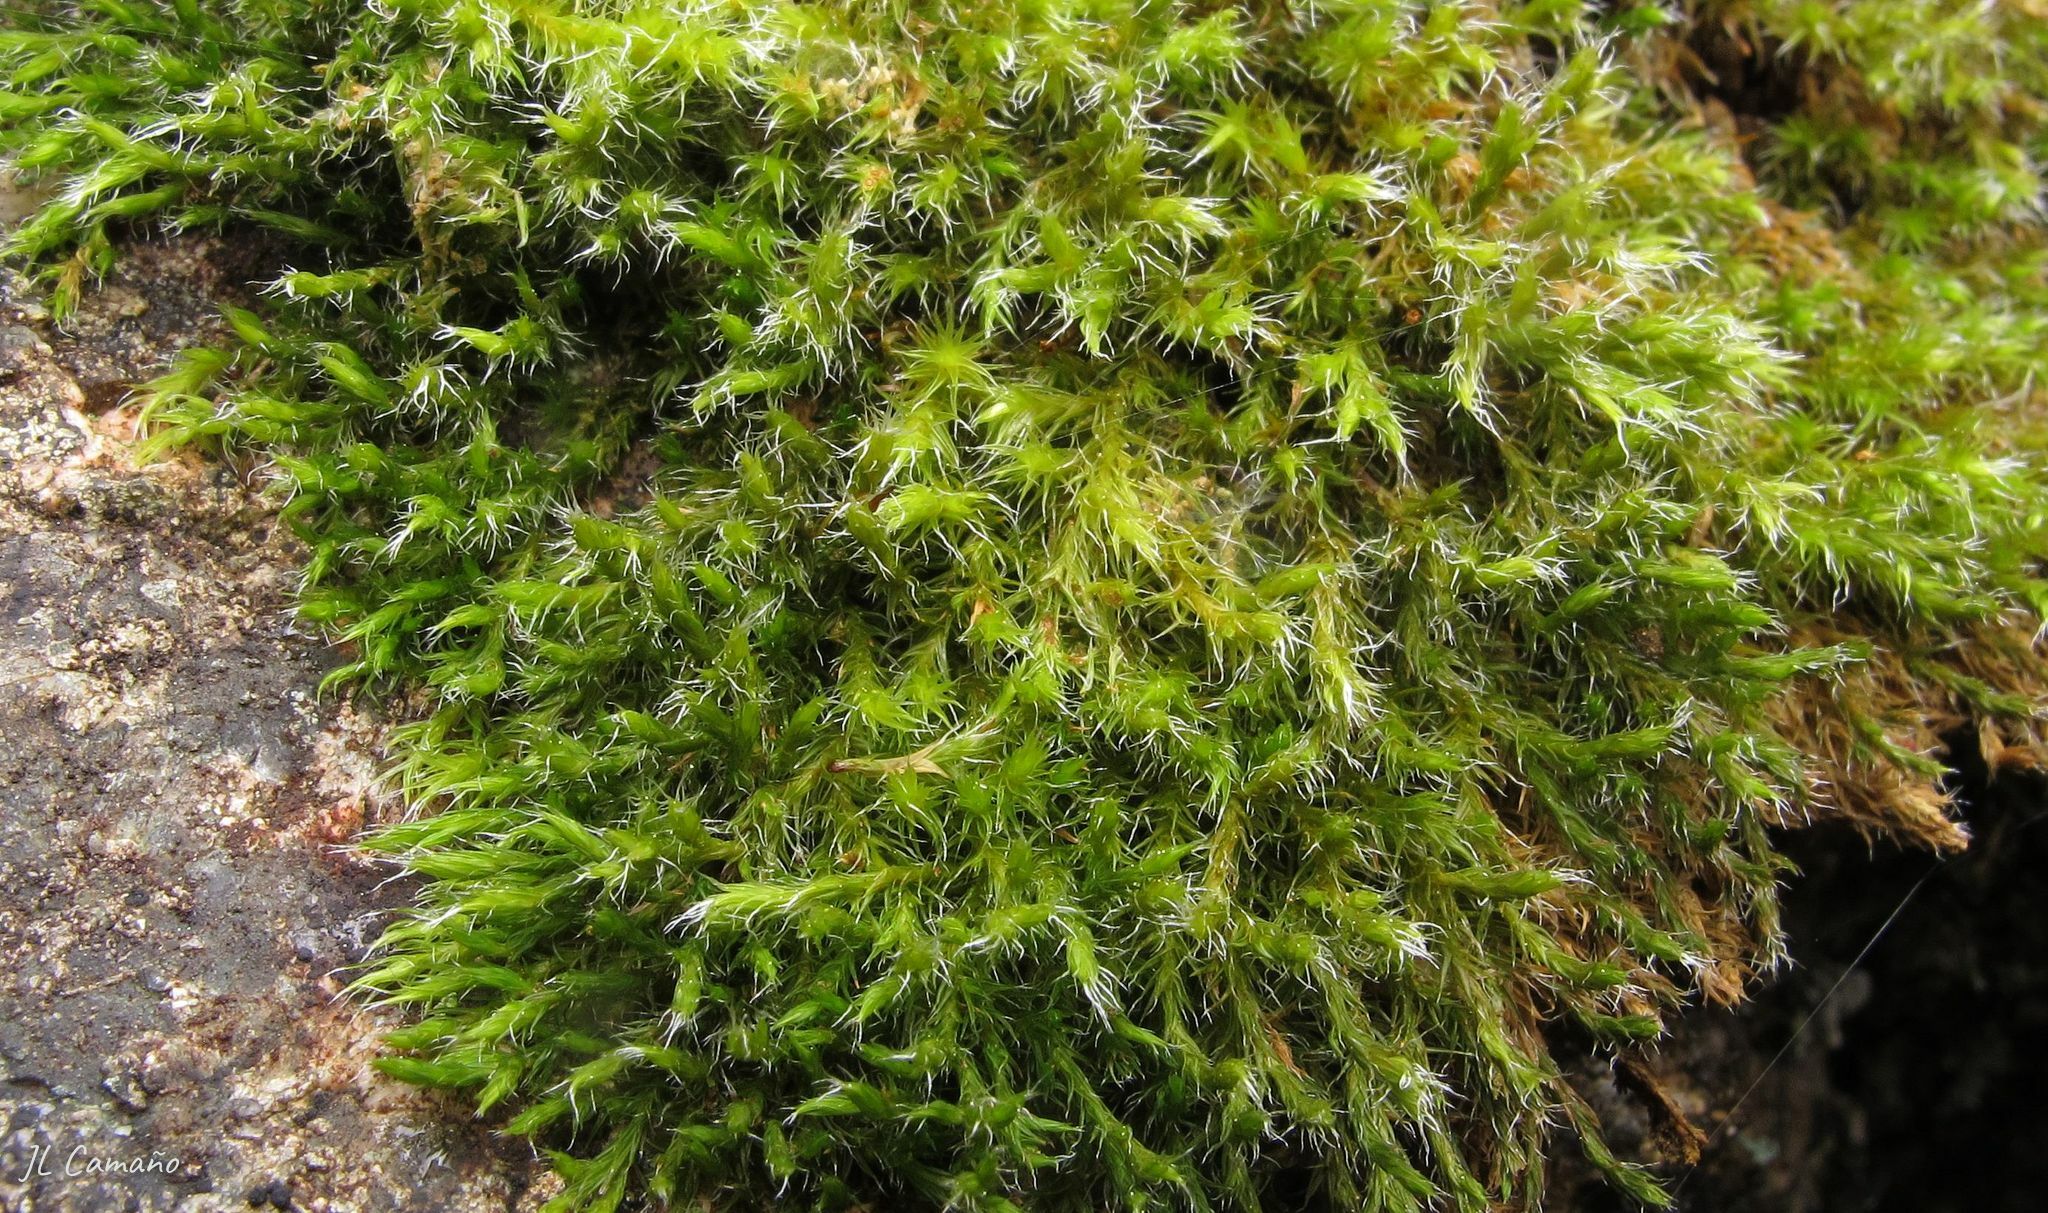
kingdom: Plantae
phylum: Bryophyta
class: Bryopsida
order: Grimmiales
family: Grimmiaceae
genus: Bucklandiella
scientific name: Bucklandiella heterosticha
